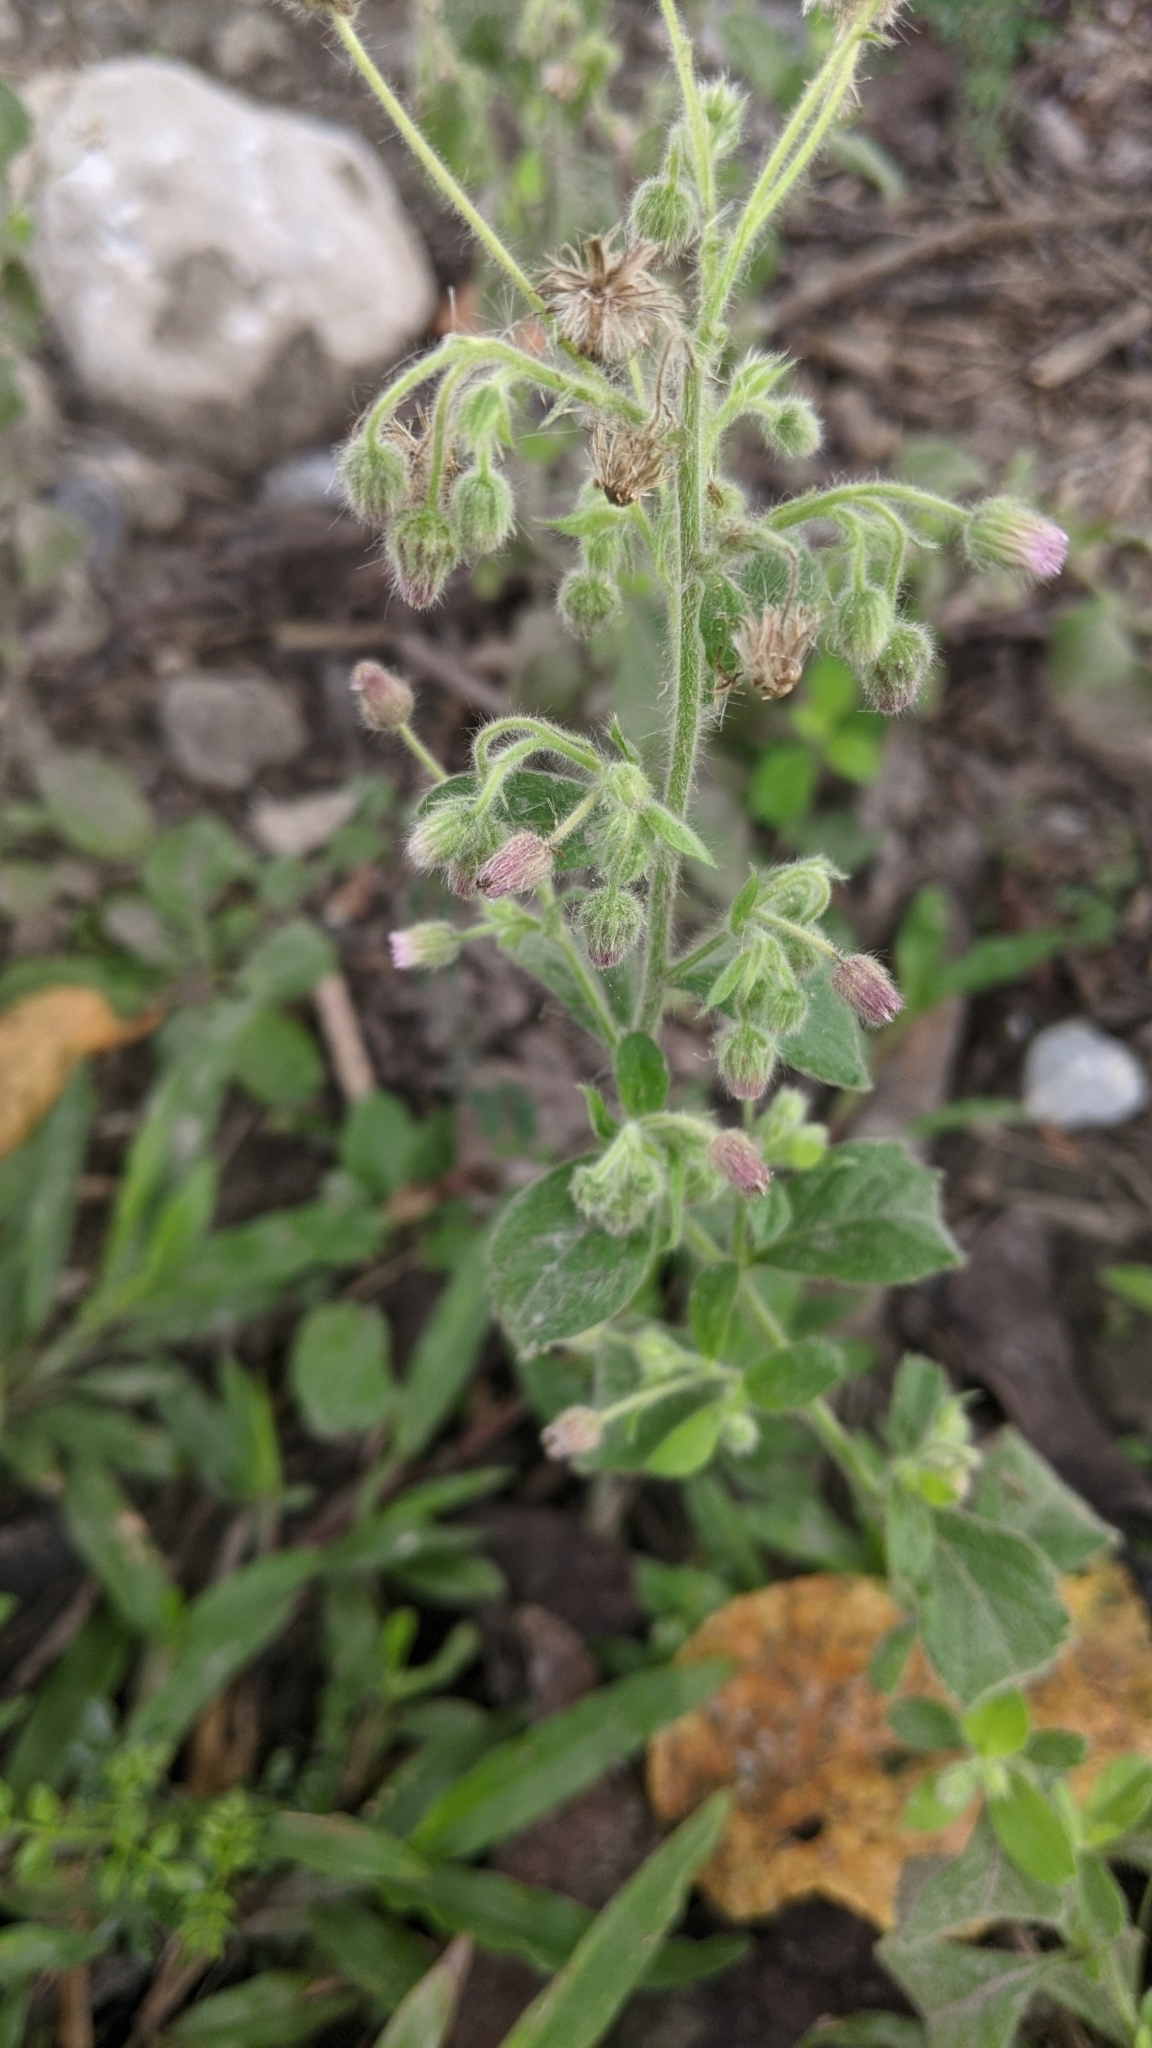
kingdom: Plantae
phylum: Tracheophyta
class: Magnoliopsida
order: Asterales
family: Asteraceae
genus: Blumea
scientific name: Blumea axillaris
